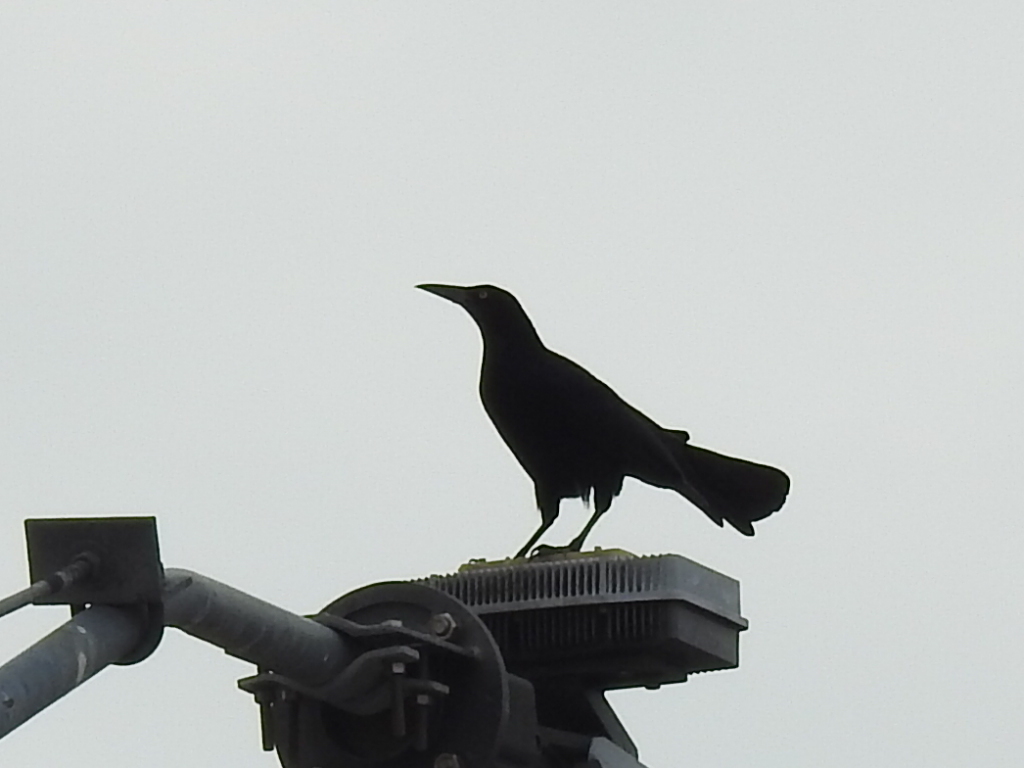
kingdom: Animalia
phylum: Chordata
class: Aves
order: Passeriformes
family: Icteridae
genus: Quiscalus
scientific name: Quiscalus mexicanus
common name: Great-tailed grackle
